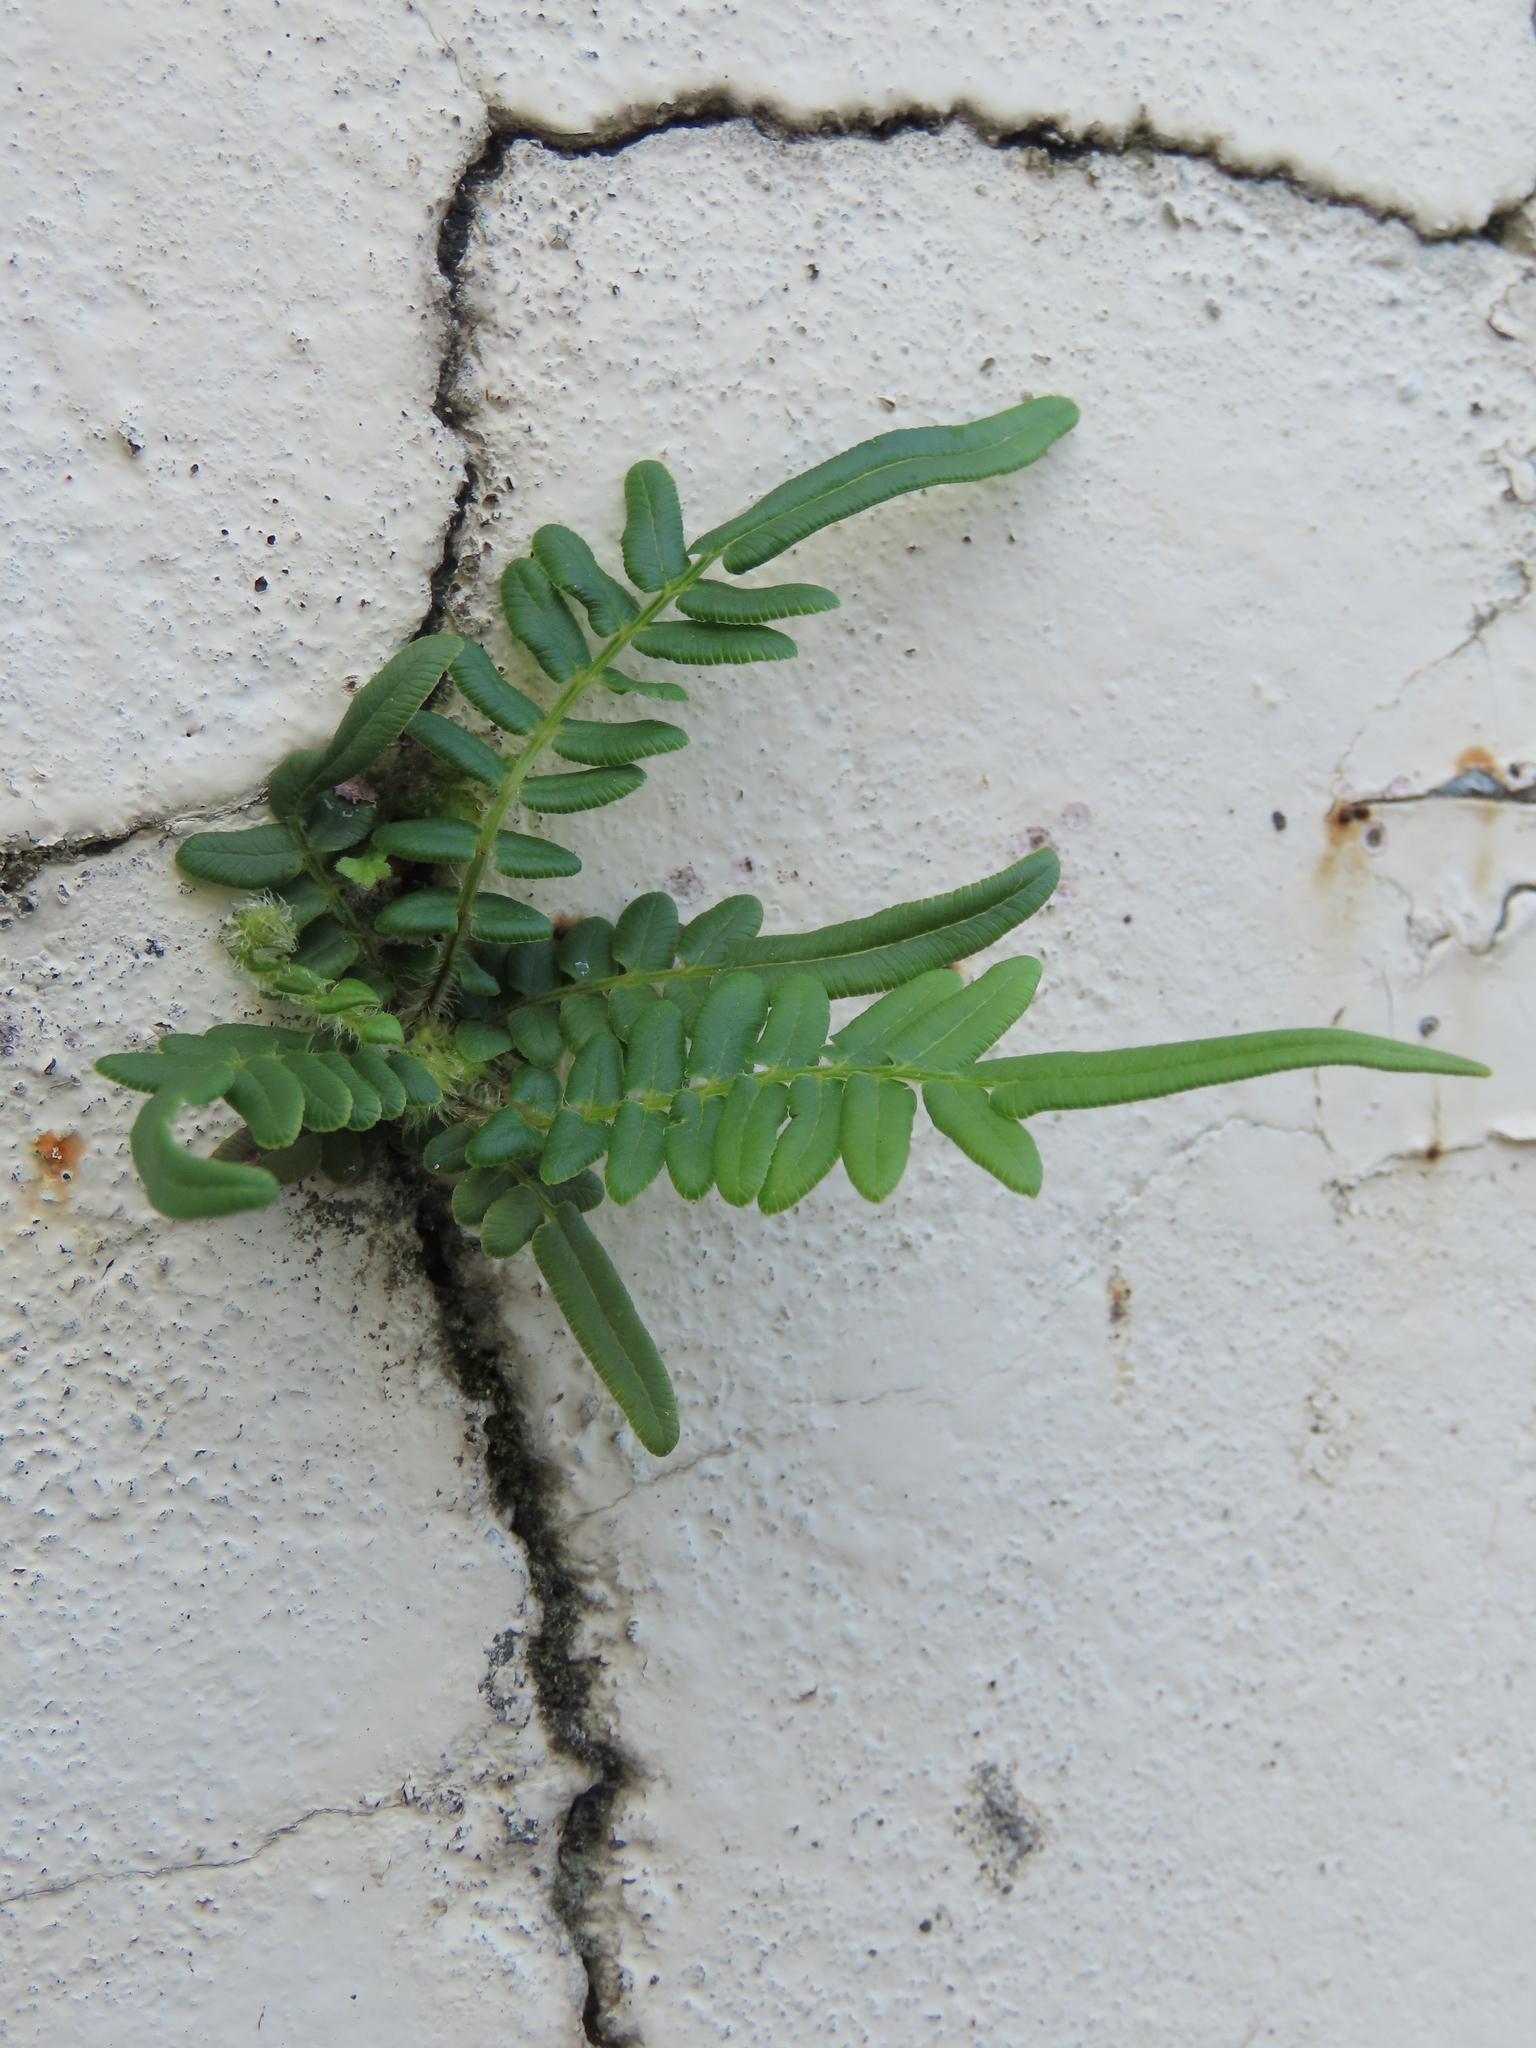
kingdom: Plantae
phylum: Tracheophyta
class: Polypodiopsida
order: Polypodiales
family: Pteridaceae
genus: Pteris
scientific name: Pteris vittata
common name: Ladder brake
